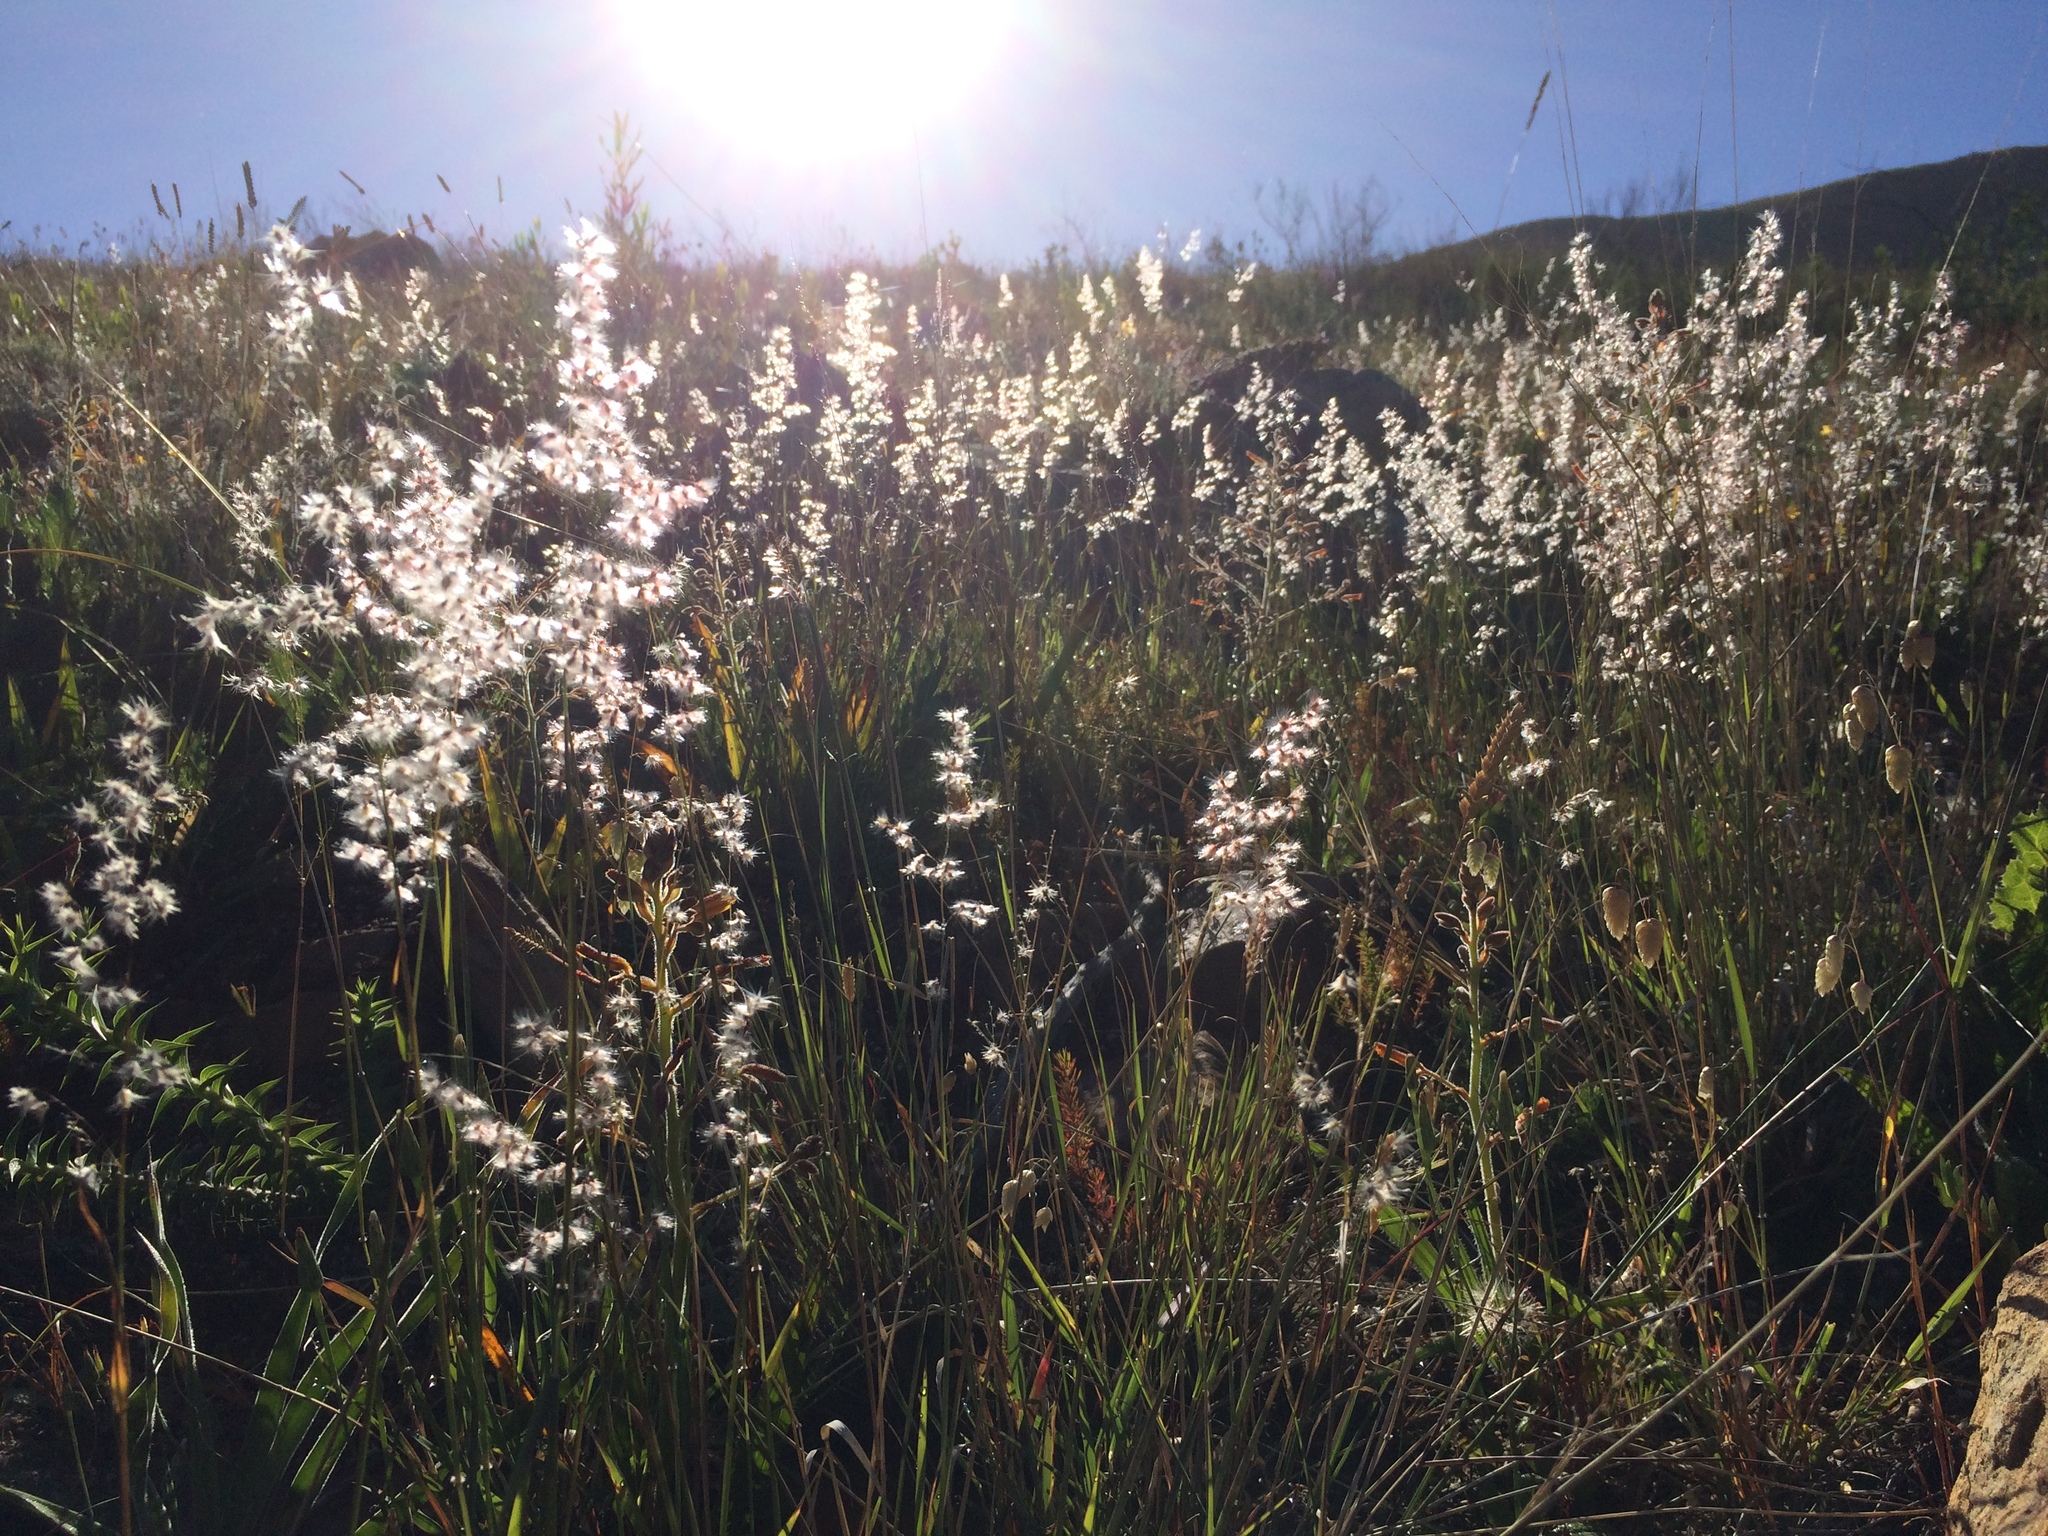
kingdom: Plantae
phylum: Tracheophyta
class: Liliopsida
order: Poales
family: Poaceae
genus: Melinis
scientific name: Melinis repens
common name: Rose natal grass
